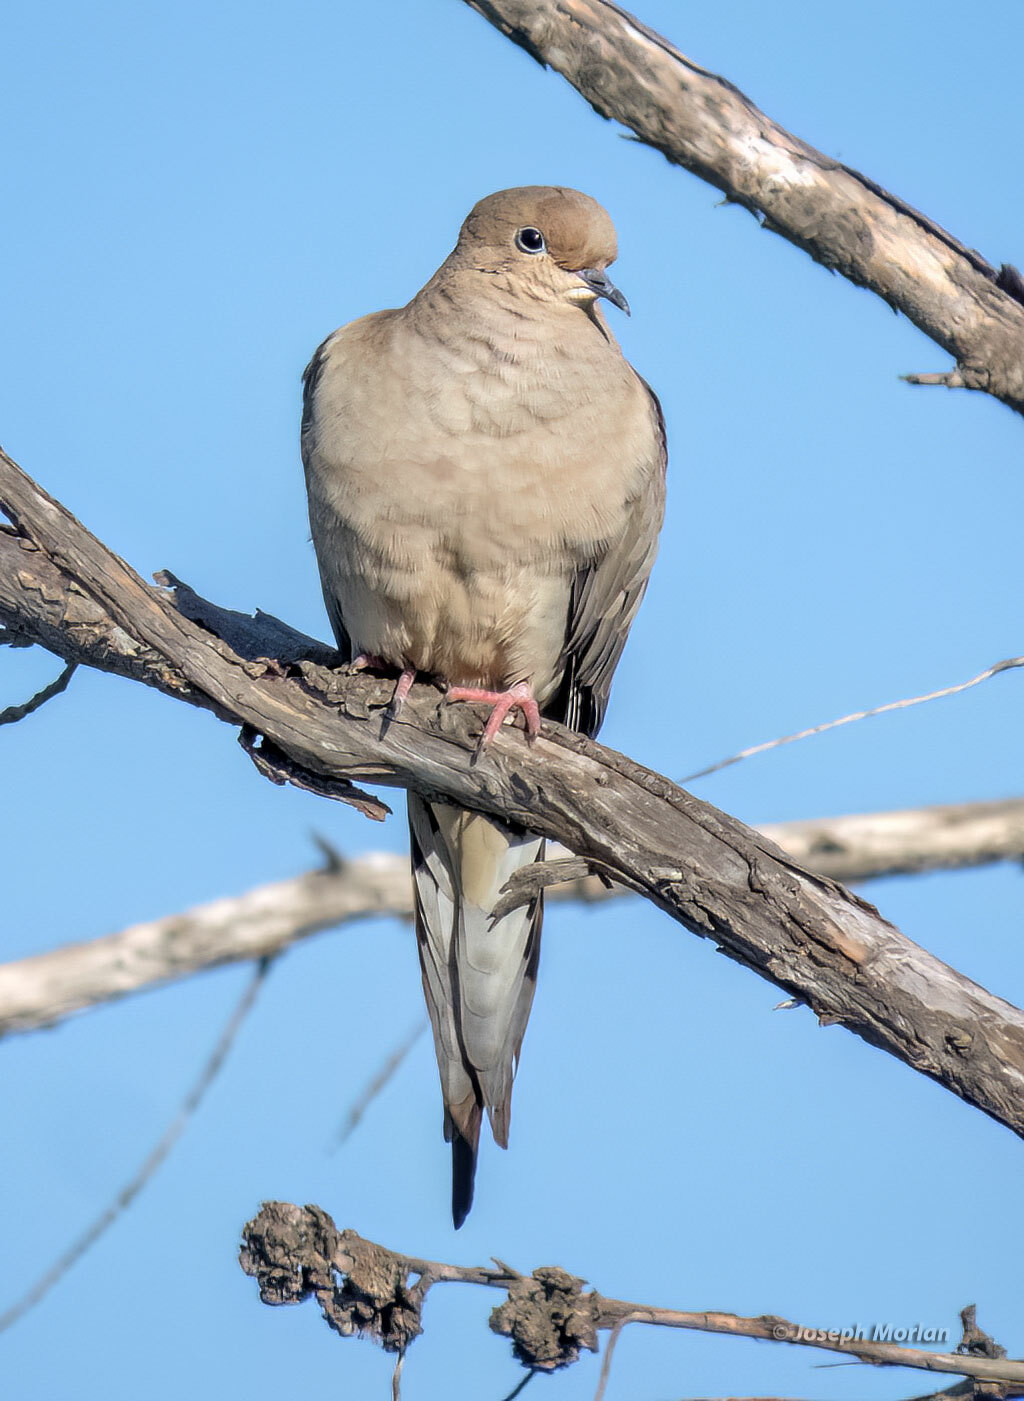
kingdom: Animalia
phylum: Chordata
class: Aves
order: Columbiformes
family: Columbidae
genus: Zenaida
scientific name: Zenaida macroura
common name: Mourning dove
